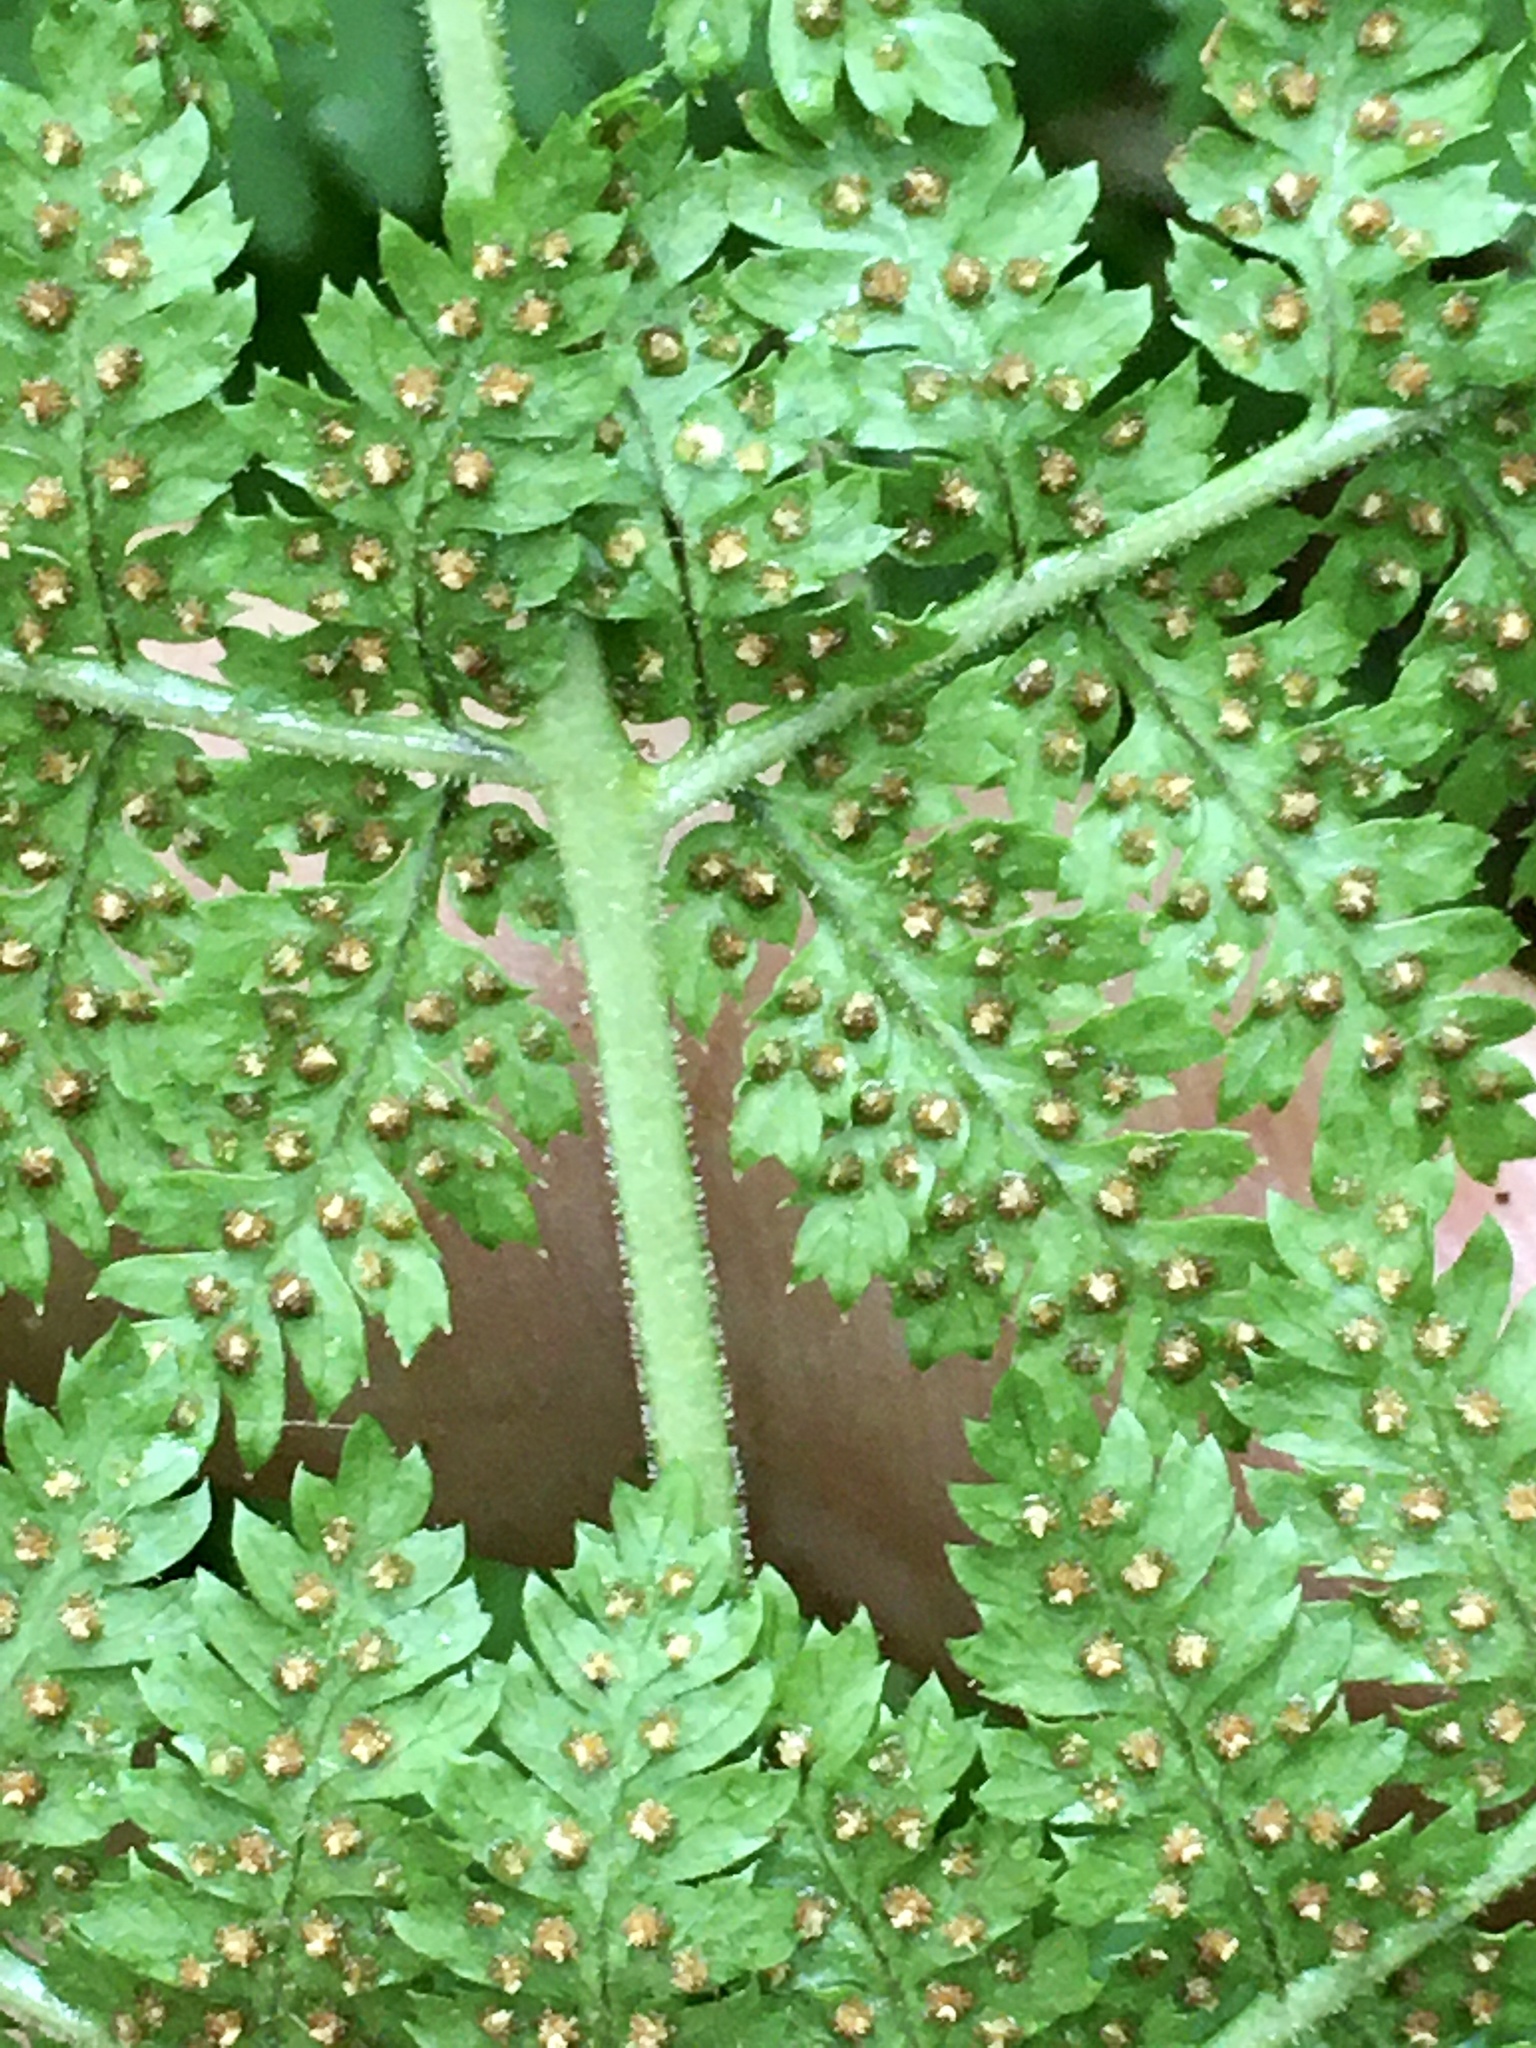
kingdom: Plantae
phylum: Tracheophyta
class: Polypodiopsida
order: Polypodiales
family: Dryopteridaceae
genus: Dryopteris
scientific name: Dryopteris intermedia
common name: Evergreen wood fern
